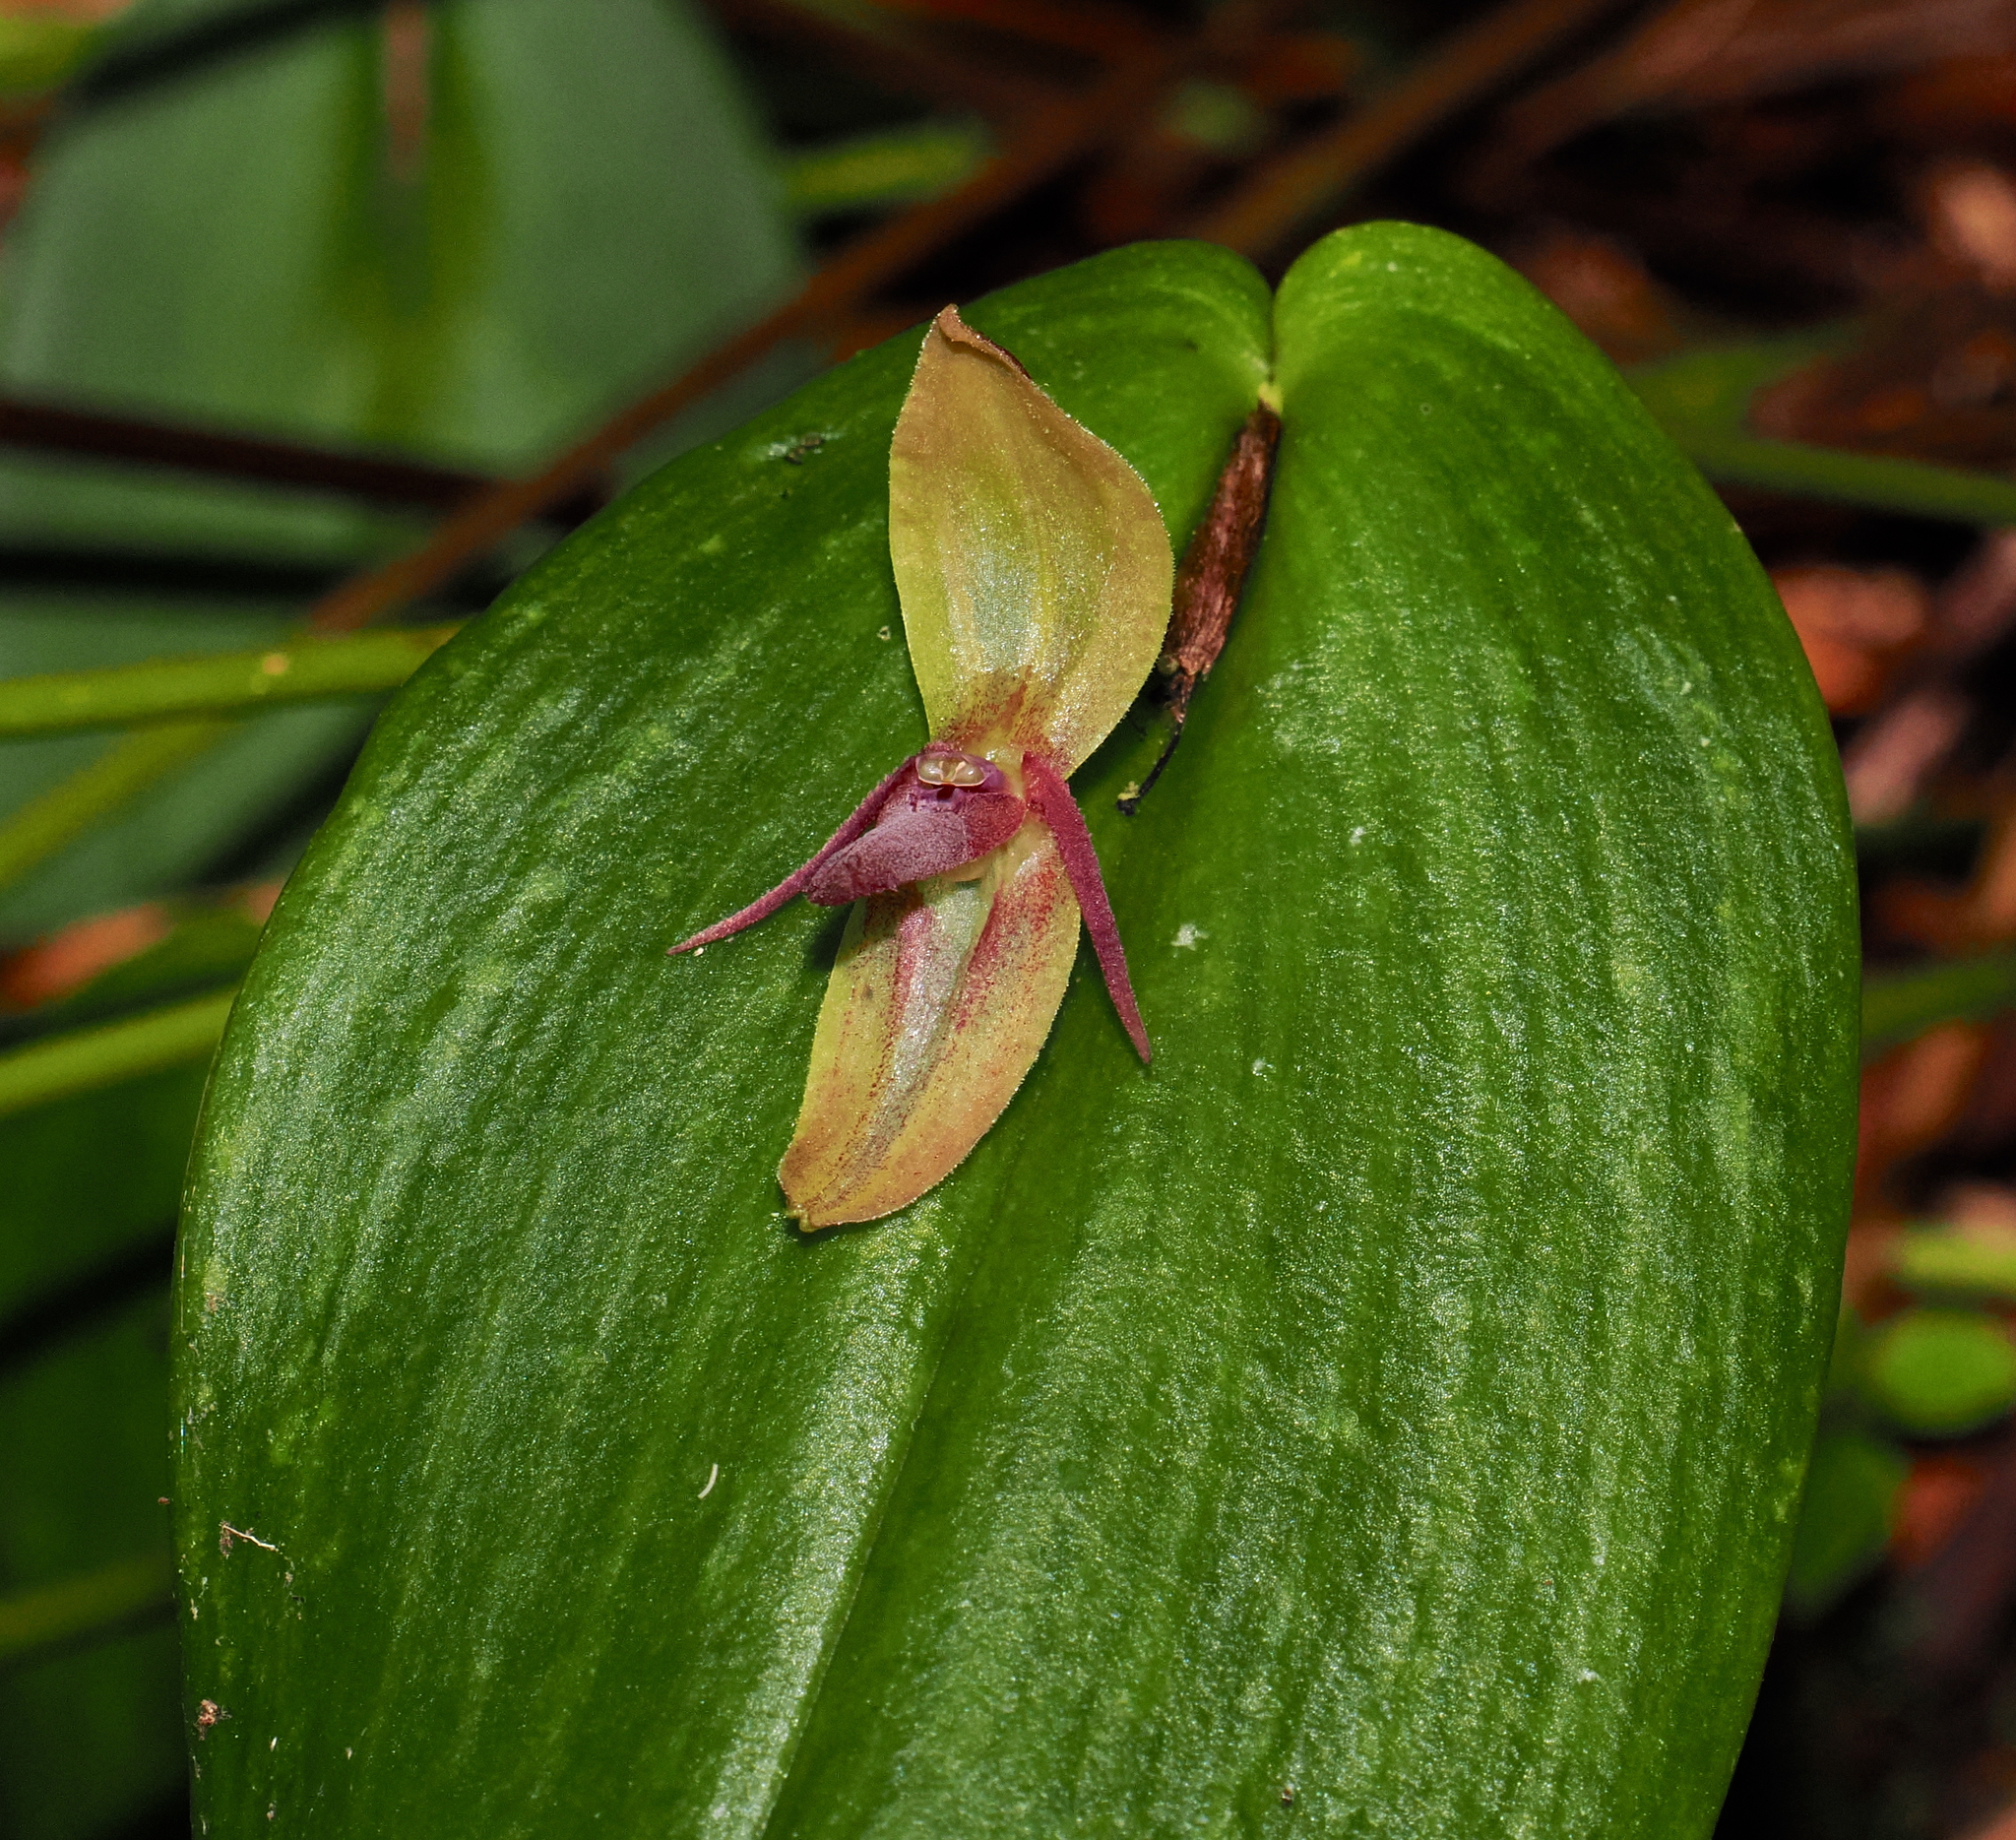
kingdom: Plantae
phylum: Tracheophyta
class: Liliopsida
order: Asparagales
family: Orchidaceae
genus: Pleurothallis
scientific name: Pleurothallis adonis
